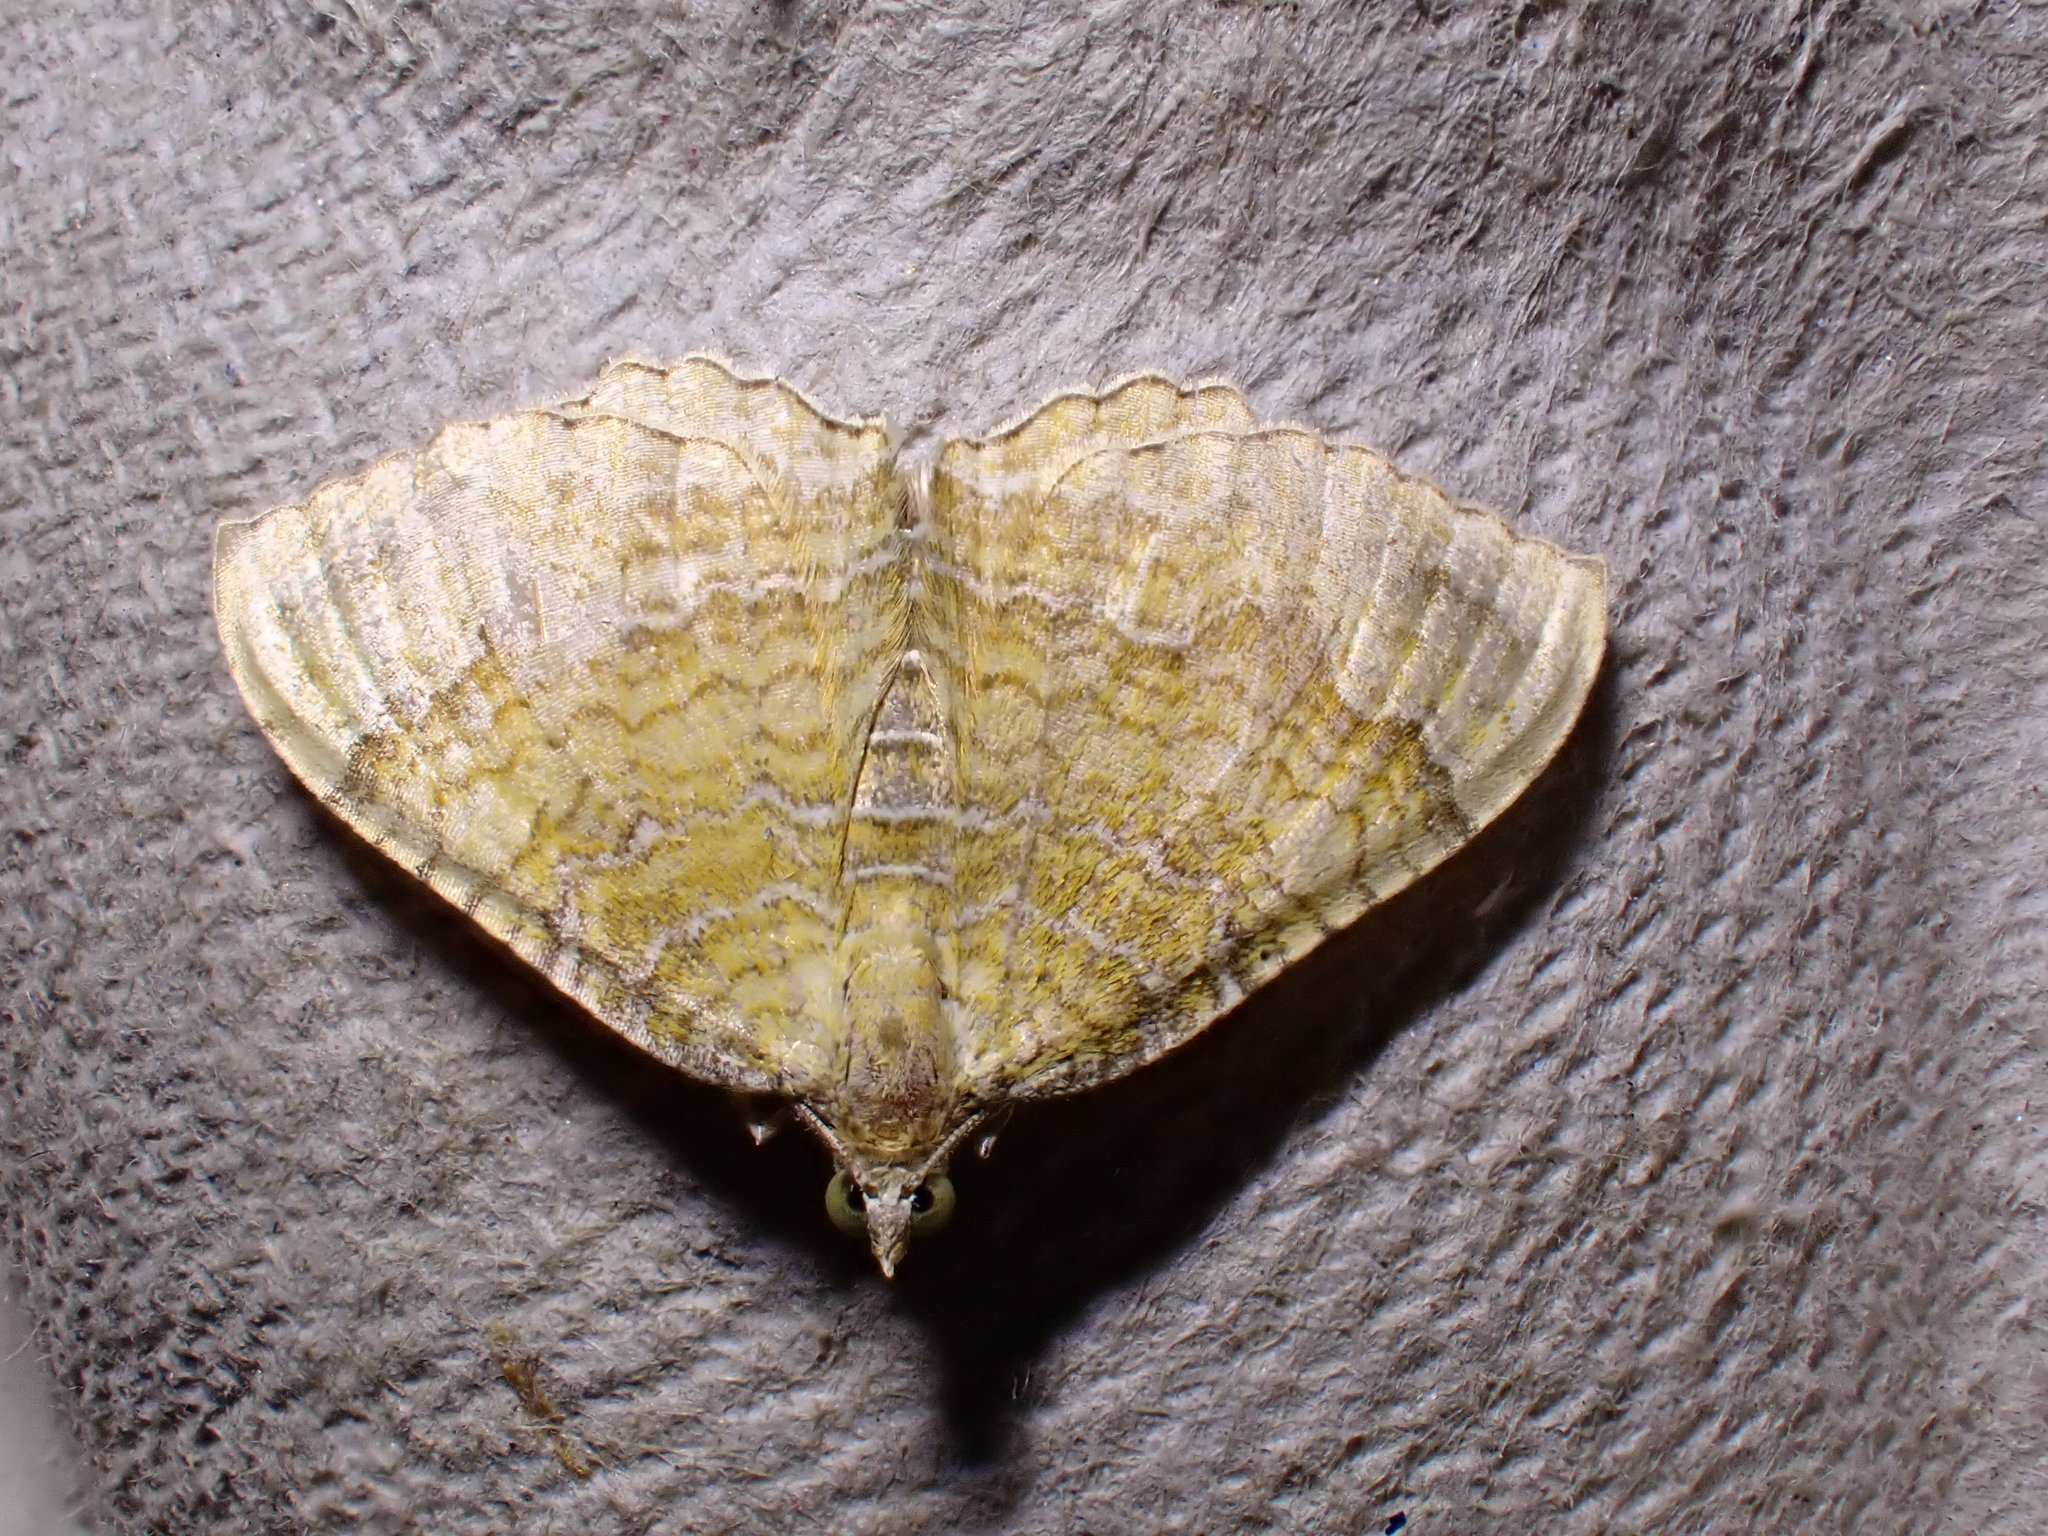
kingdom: Animalia
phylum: Arthropoda
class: Insecta
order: Lepidoptera
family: Geometridae
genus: Camptogramma
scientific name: Camptogramma bilineata
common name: Yellow shell
